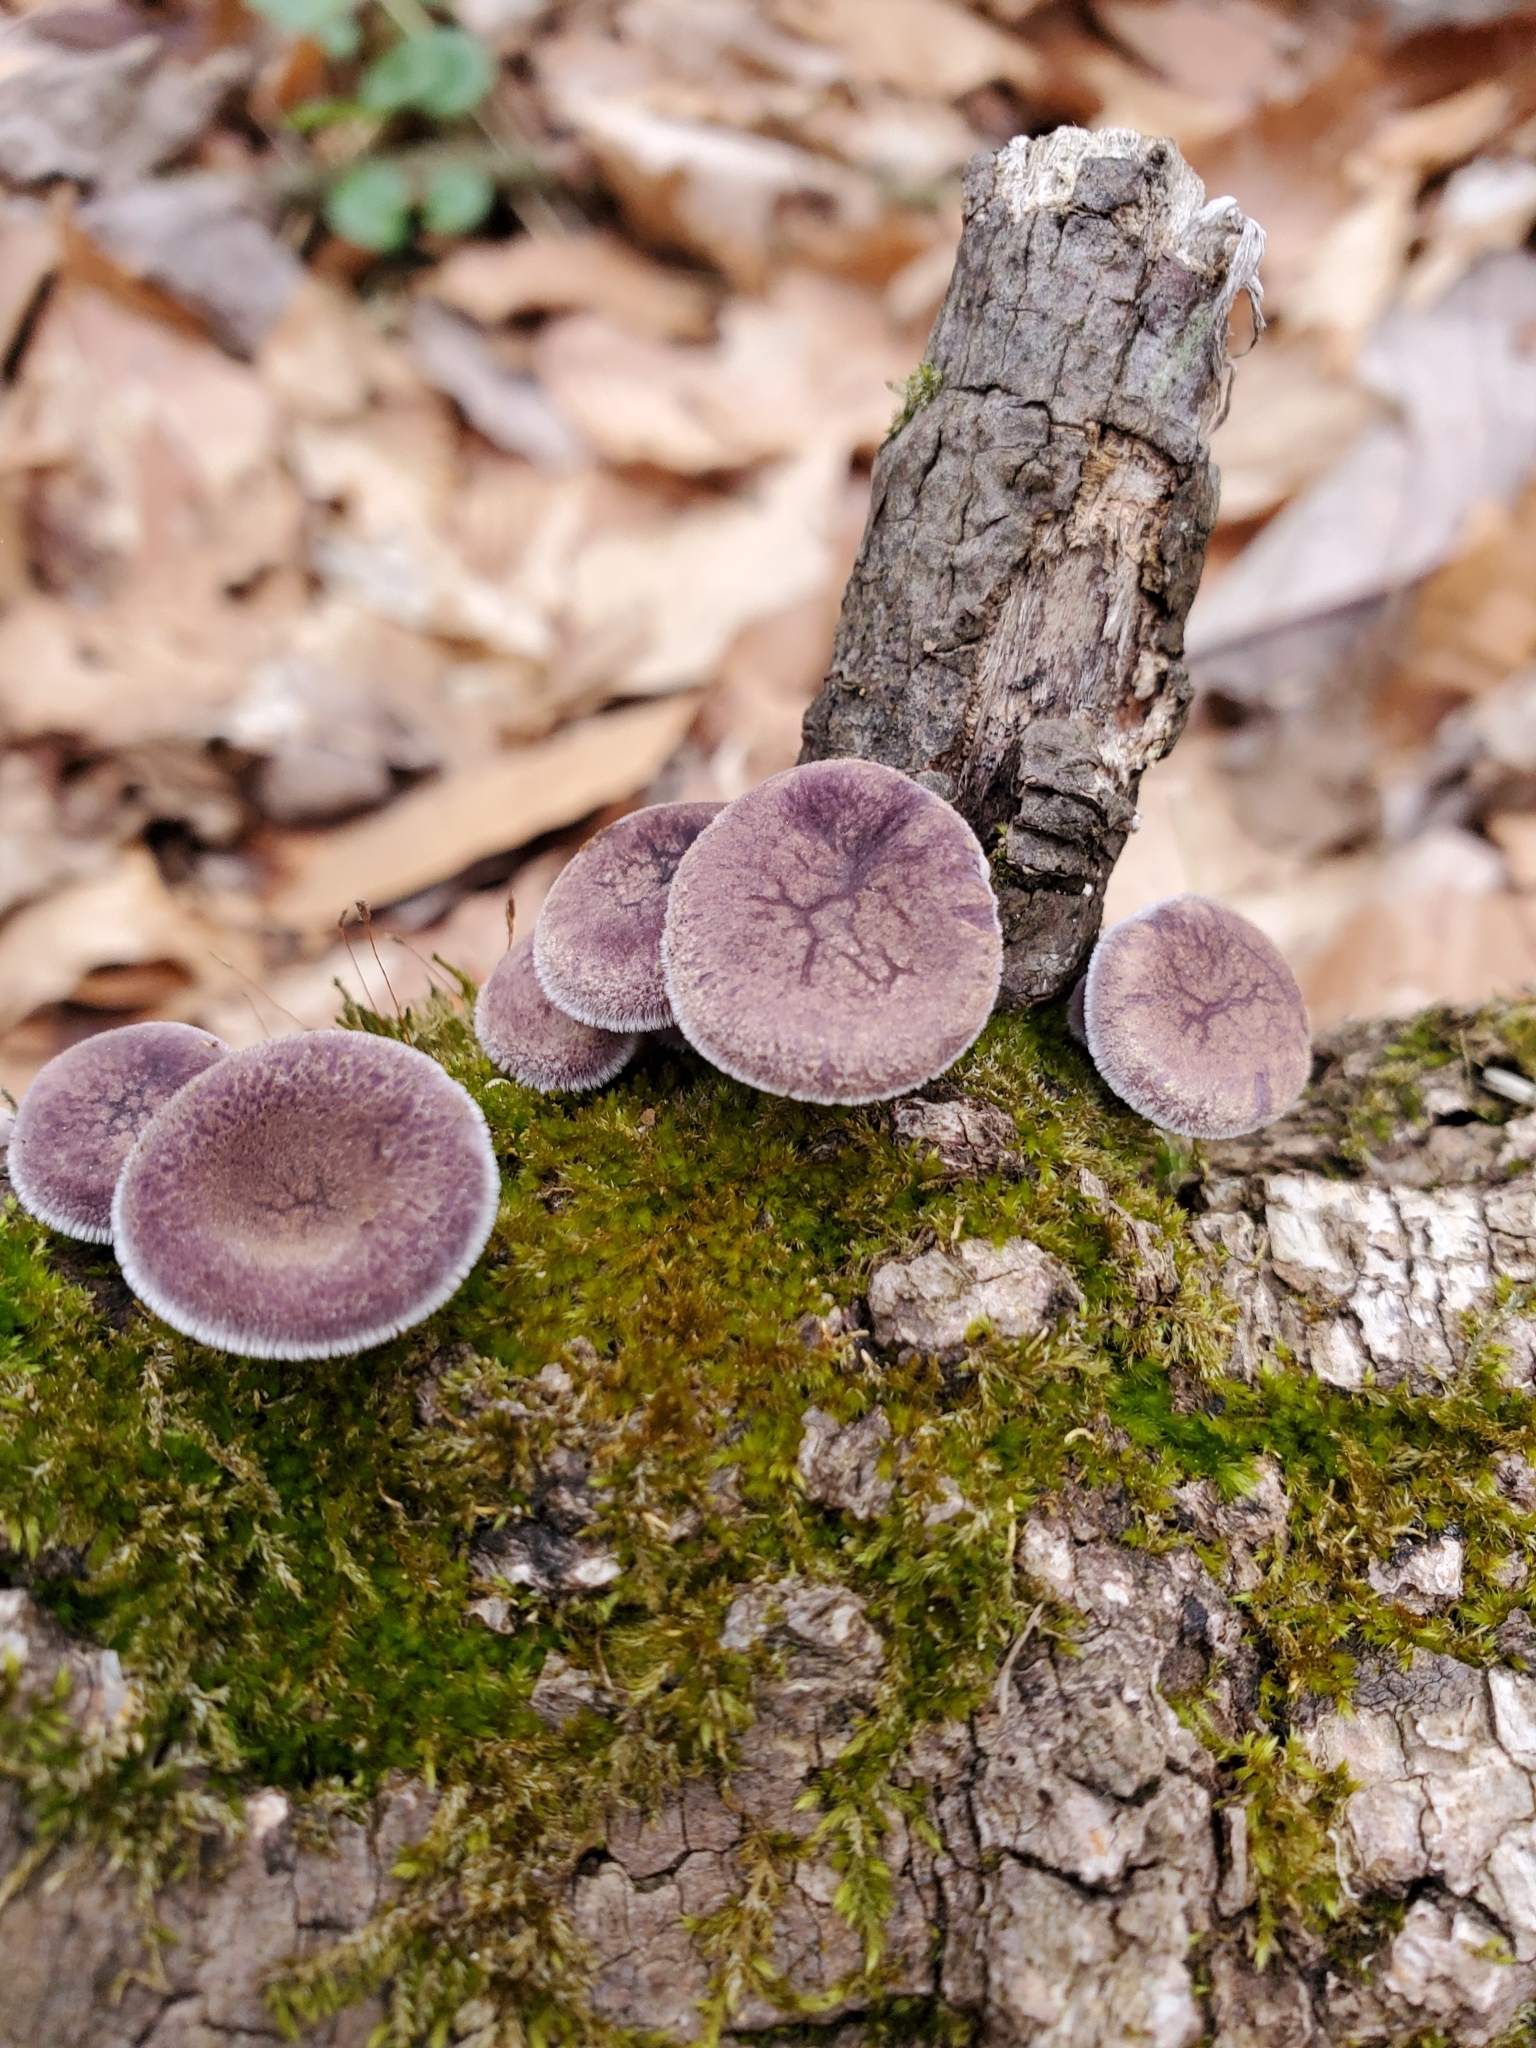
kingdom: Fungi
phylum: Basidiomycota
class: Agaricomycetes
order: Polyporales
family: Panaceae
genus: Panus
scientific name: Panus neostrigosus
